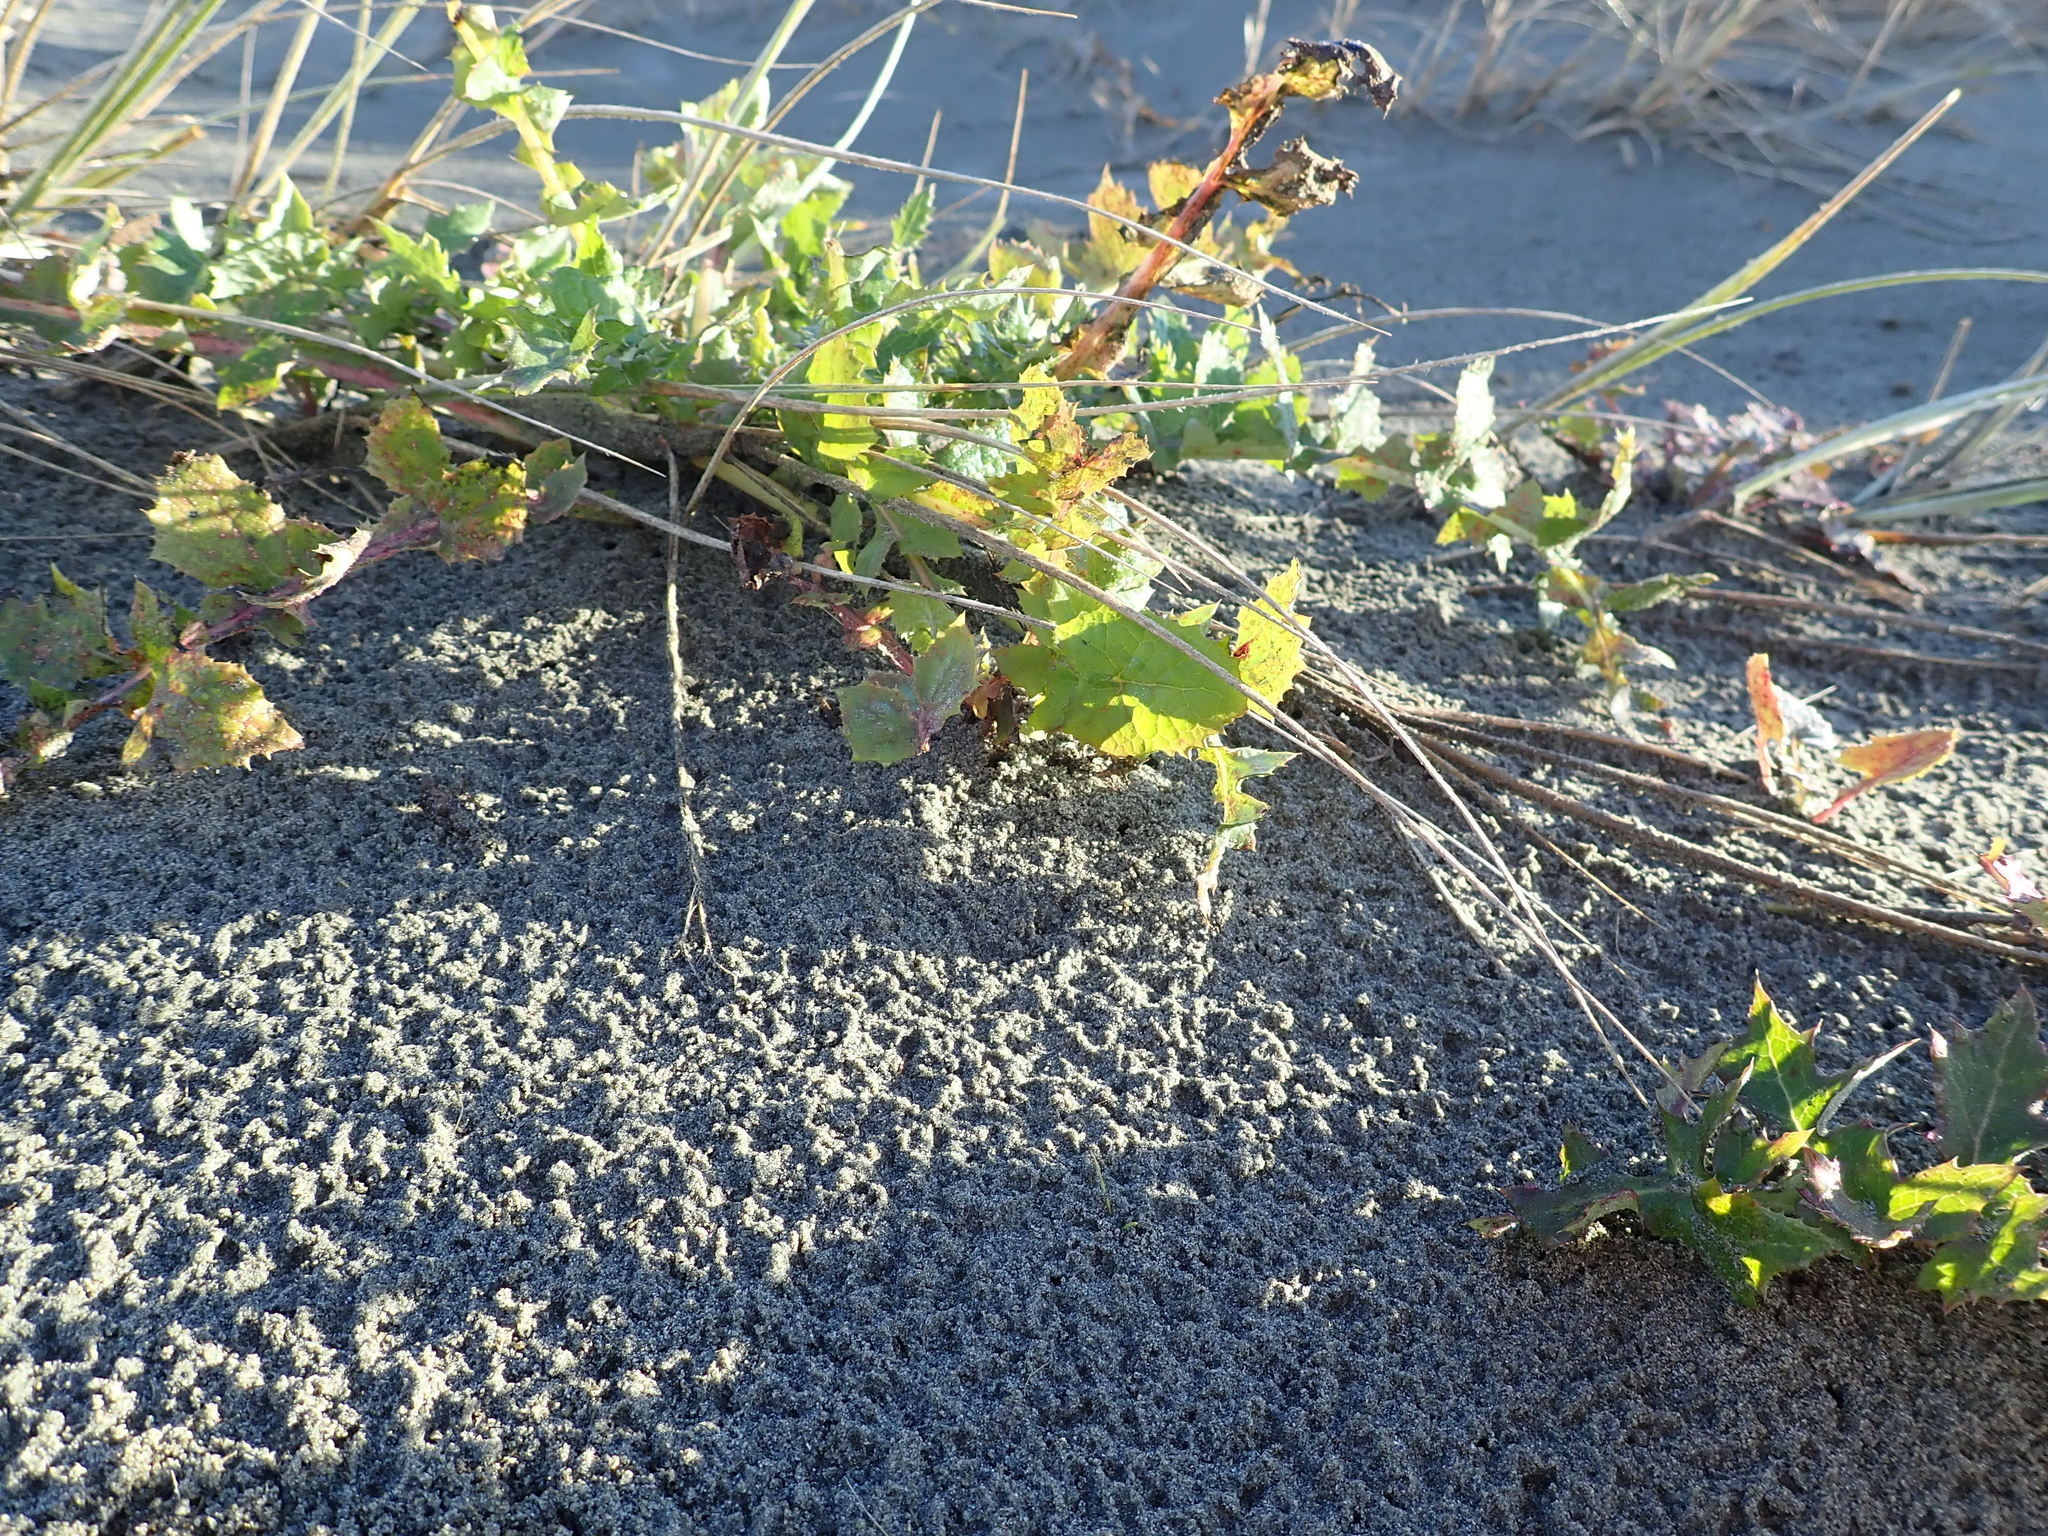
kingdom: Plantae
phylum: Tracheophyta
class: Magnoliopsida
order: Asterales
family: Asteraceae
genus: Sonchus
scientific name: Sonchus oleraceus
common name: Common sowthistle
